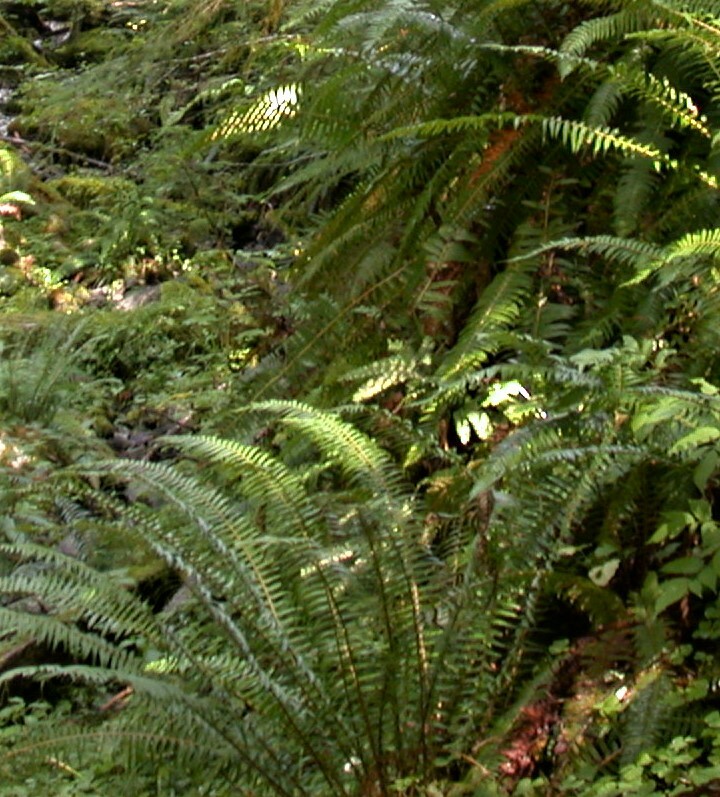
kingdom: Plantae
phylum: Tracheophyta
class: Polypodiopsida
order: Polypodiales
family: Dryopteridaceae
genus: Polystichum
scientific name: Polystichum munitum
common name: Western sword-fern
